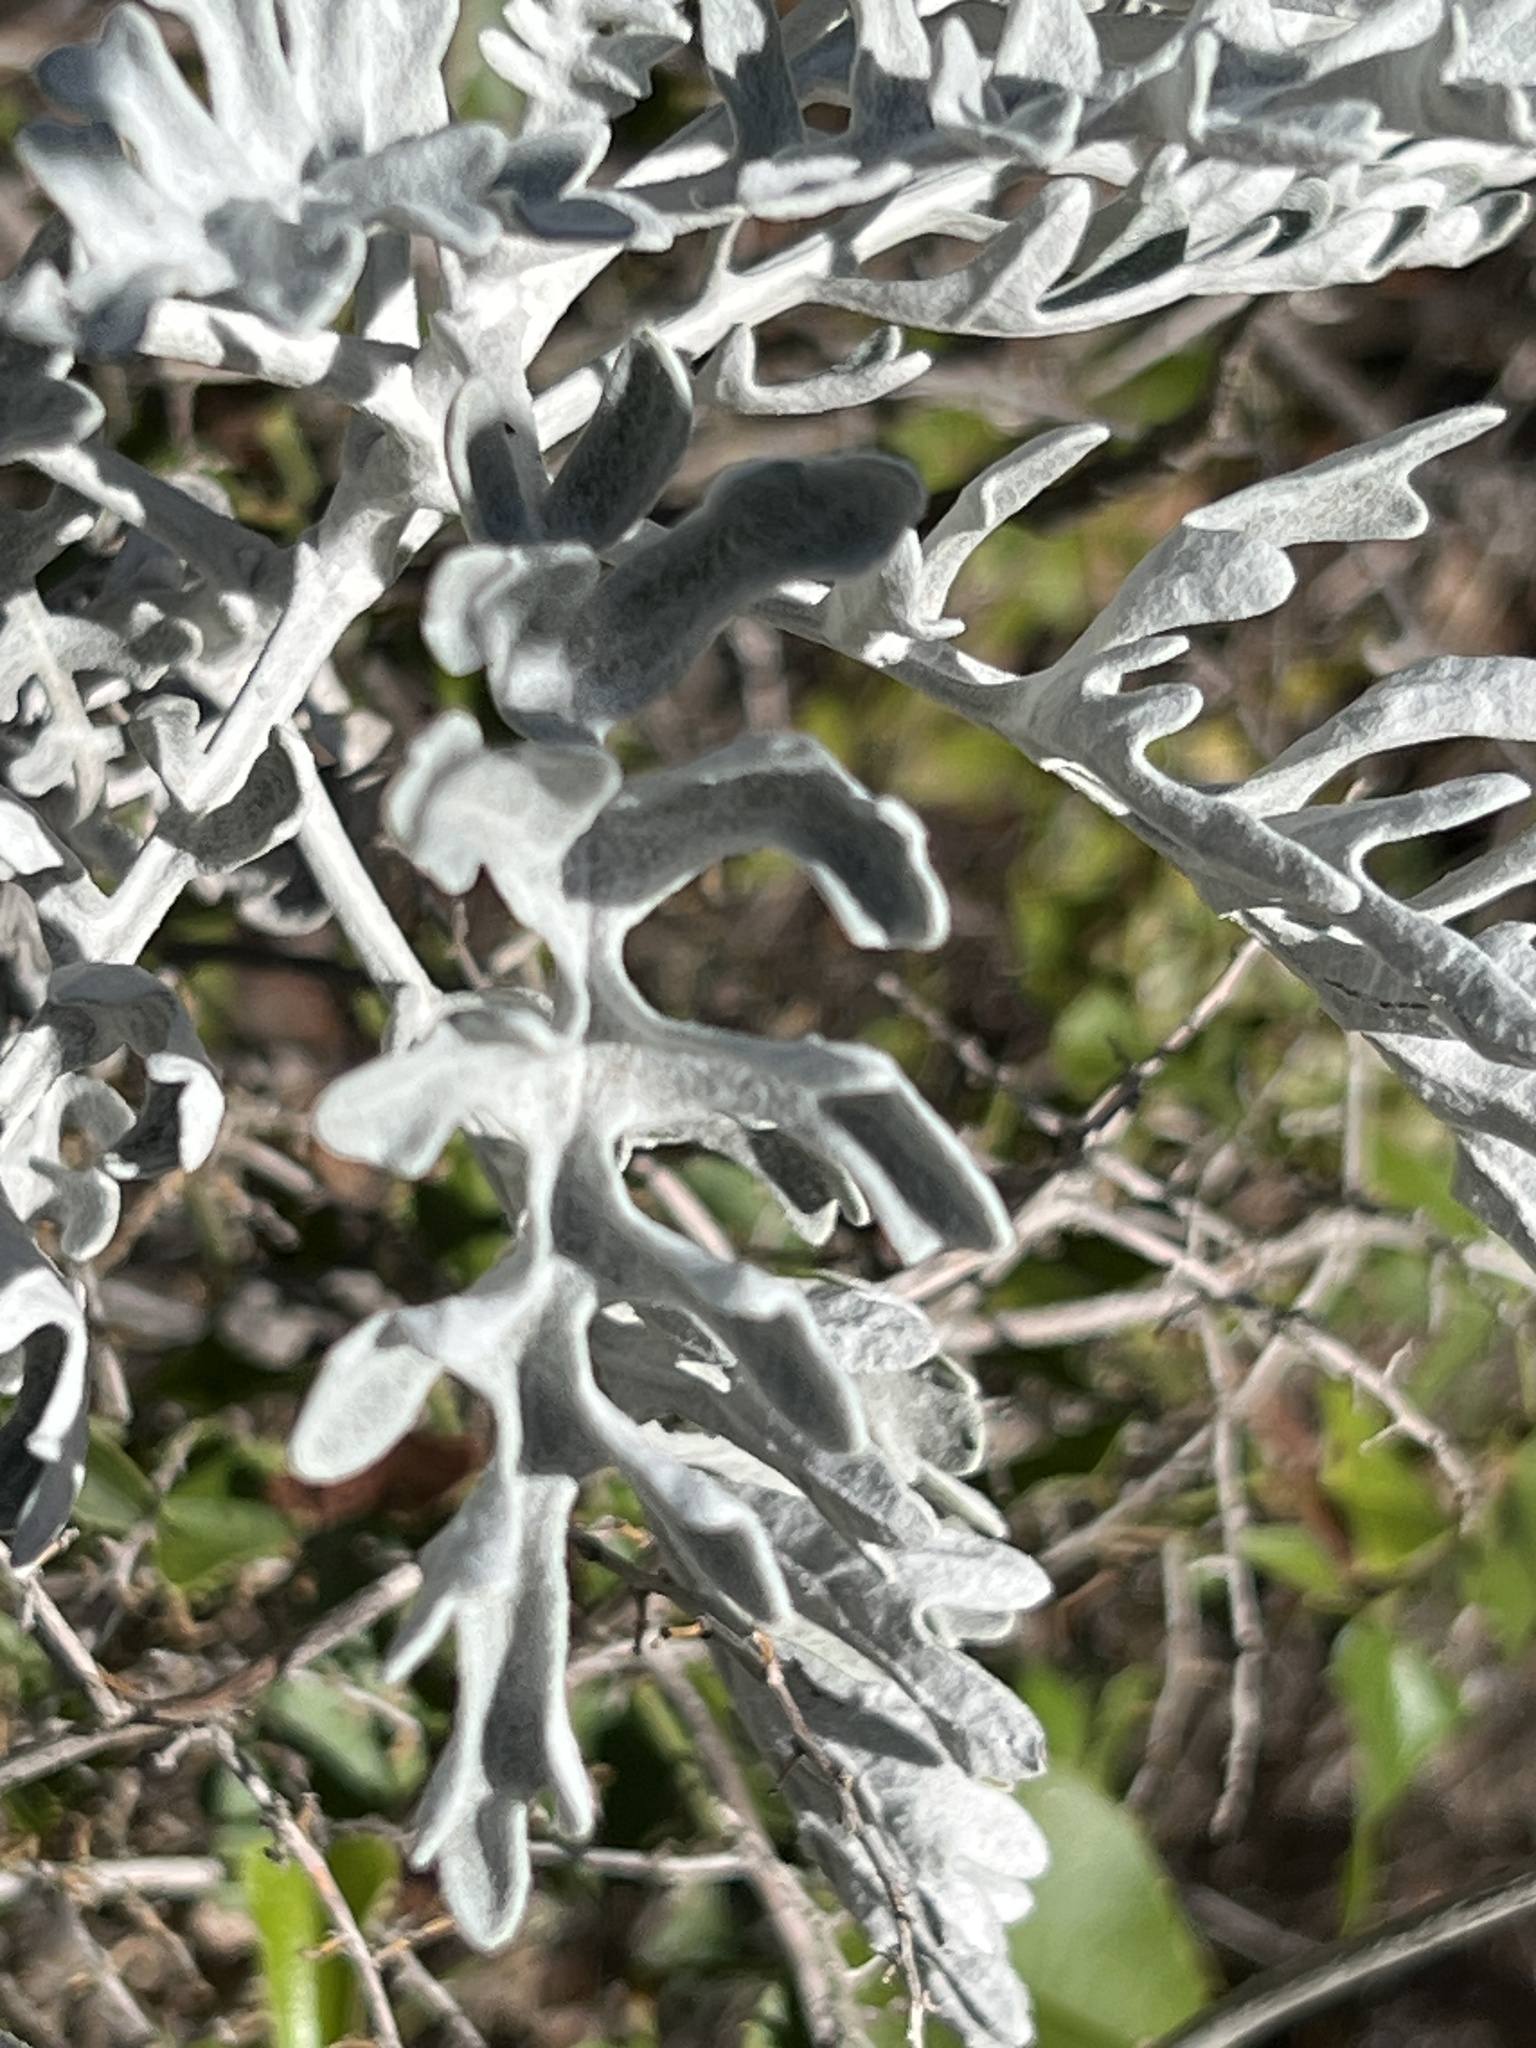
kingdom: Plantae
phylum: Tracheophyta
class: Magnoliopsida
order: Asterales
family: Asteraceae
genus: Jacobaea
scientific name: Jacobaea maritima
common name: Silver ragwort
